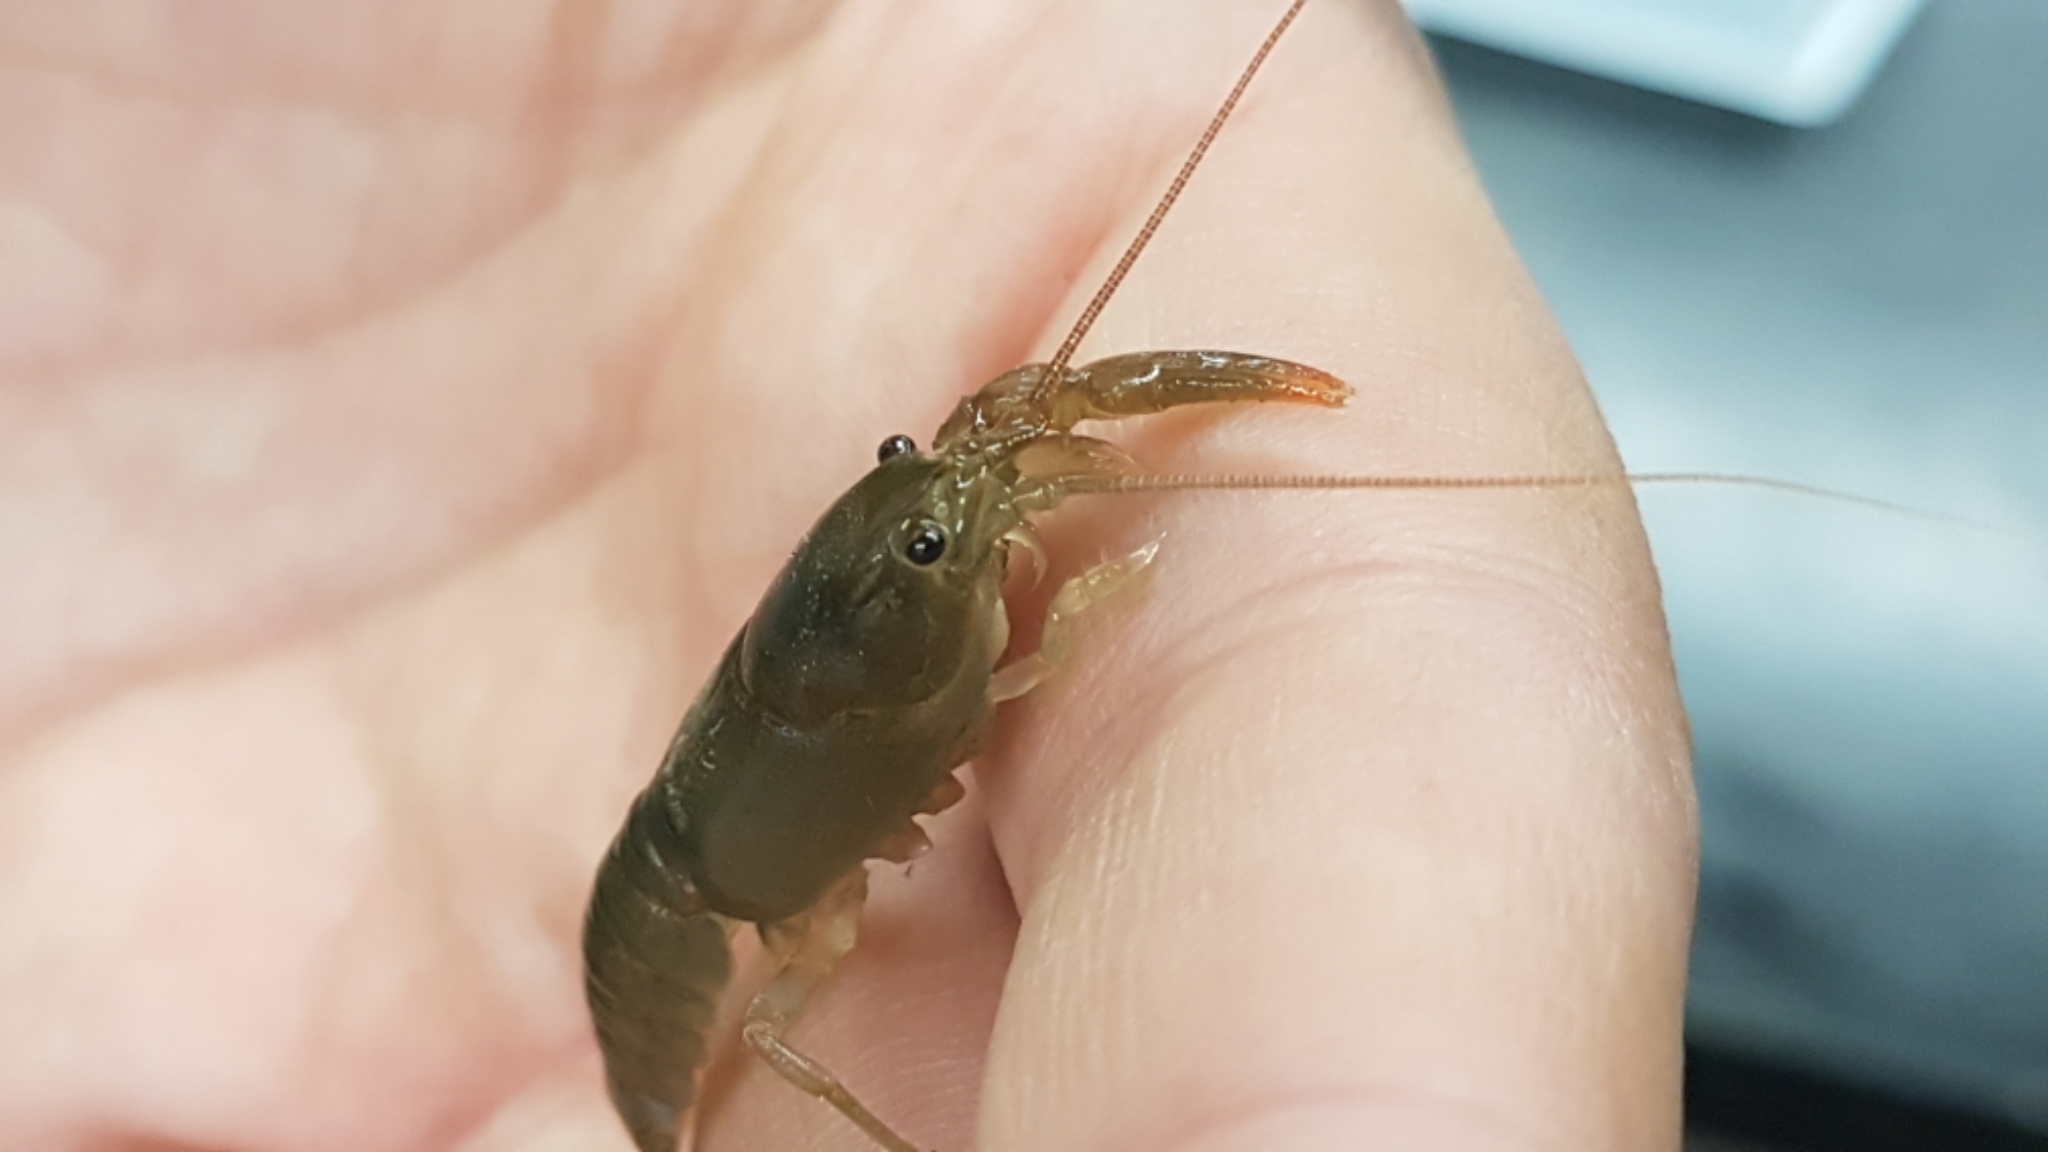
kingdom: Animalia
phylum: Arthropoda
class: Malacostraca
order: Decapoda
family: Cambaridae
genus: Cambarus
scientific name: Cambarus bartonii
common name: Appalachian brook crayfish
